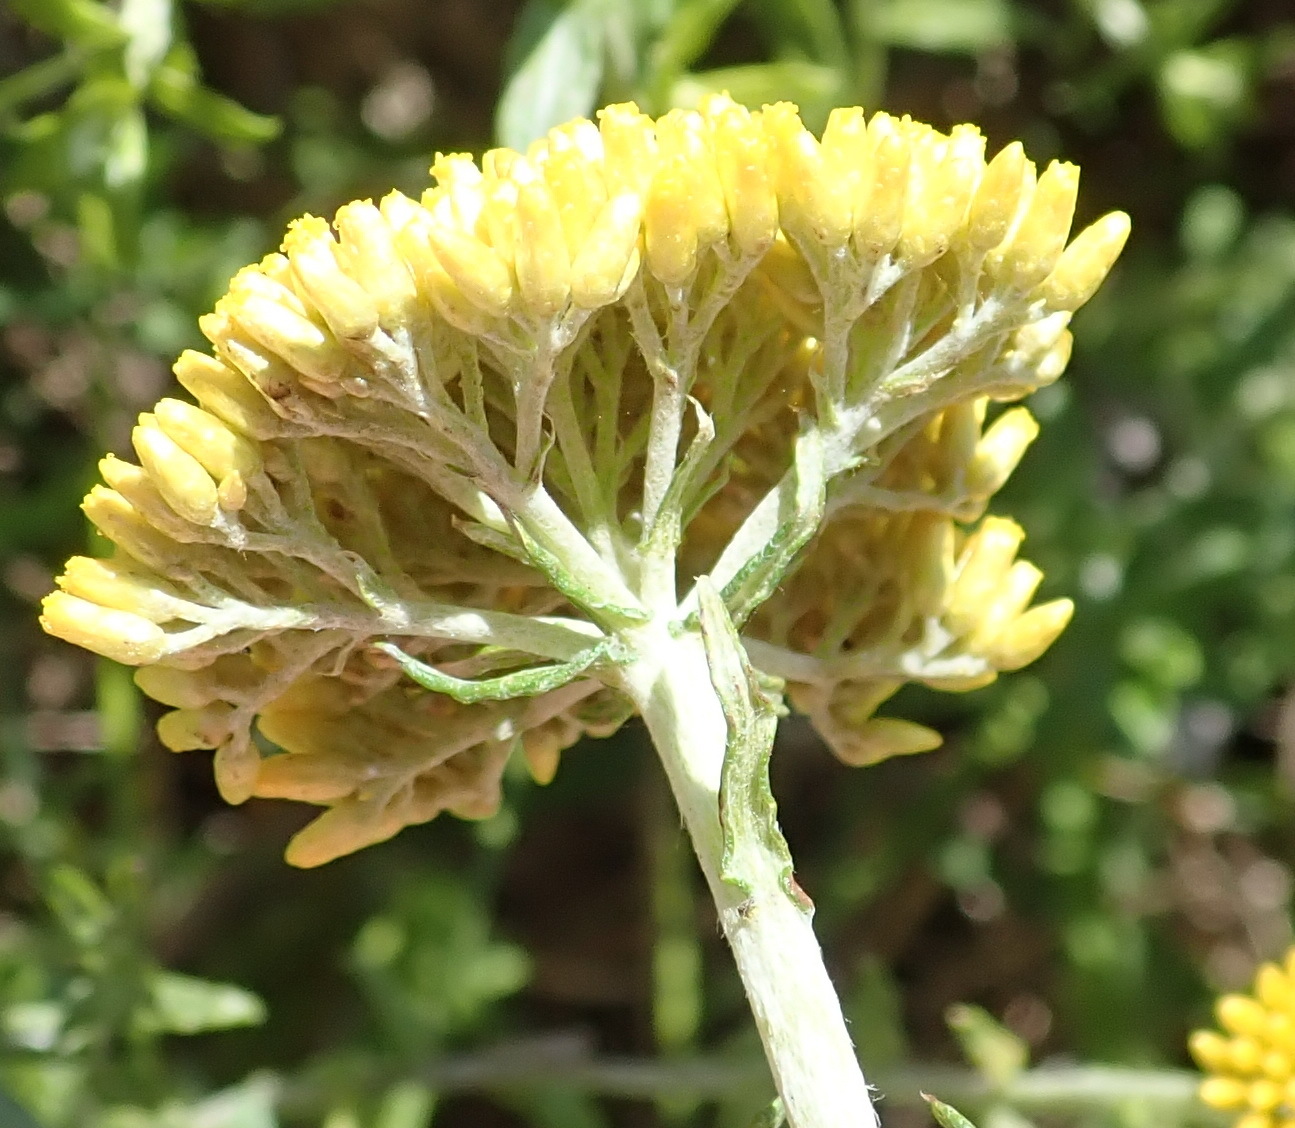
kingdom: Plantae
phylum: Tracheophyta
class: Magnoliopsida
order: Asterales
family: Asteraceae
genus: Helichrysum
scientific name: Helichrysum cymosum
